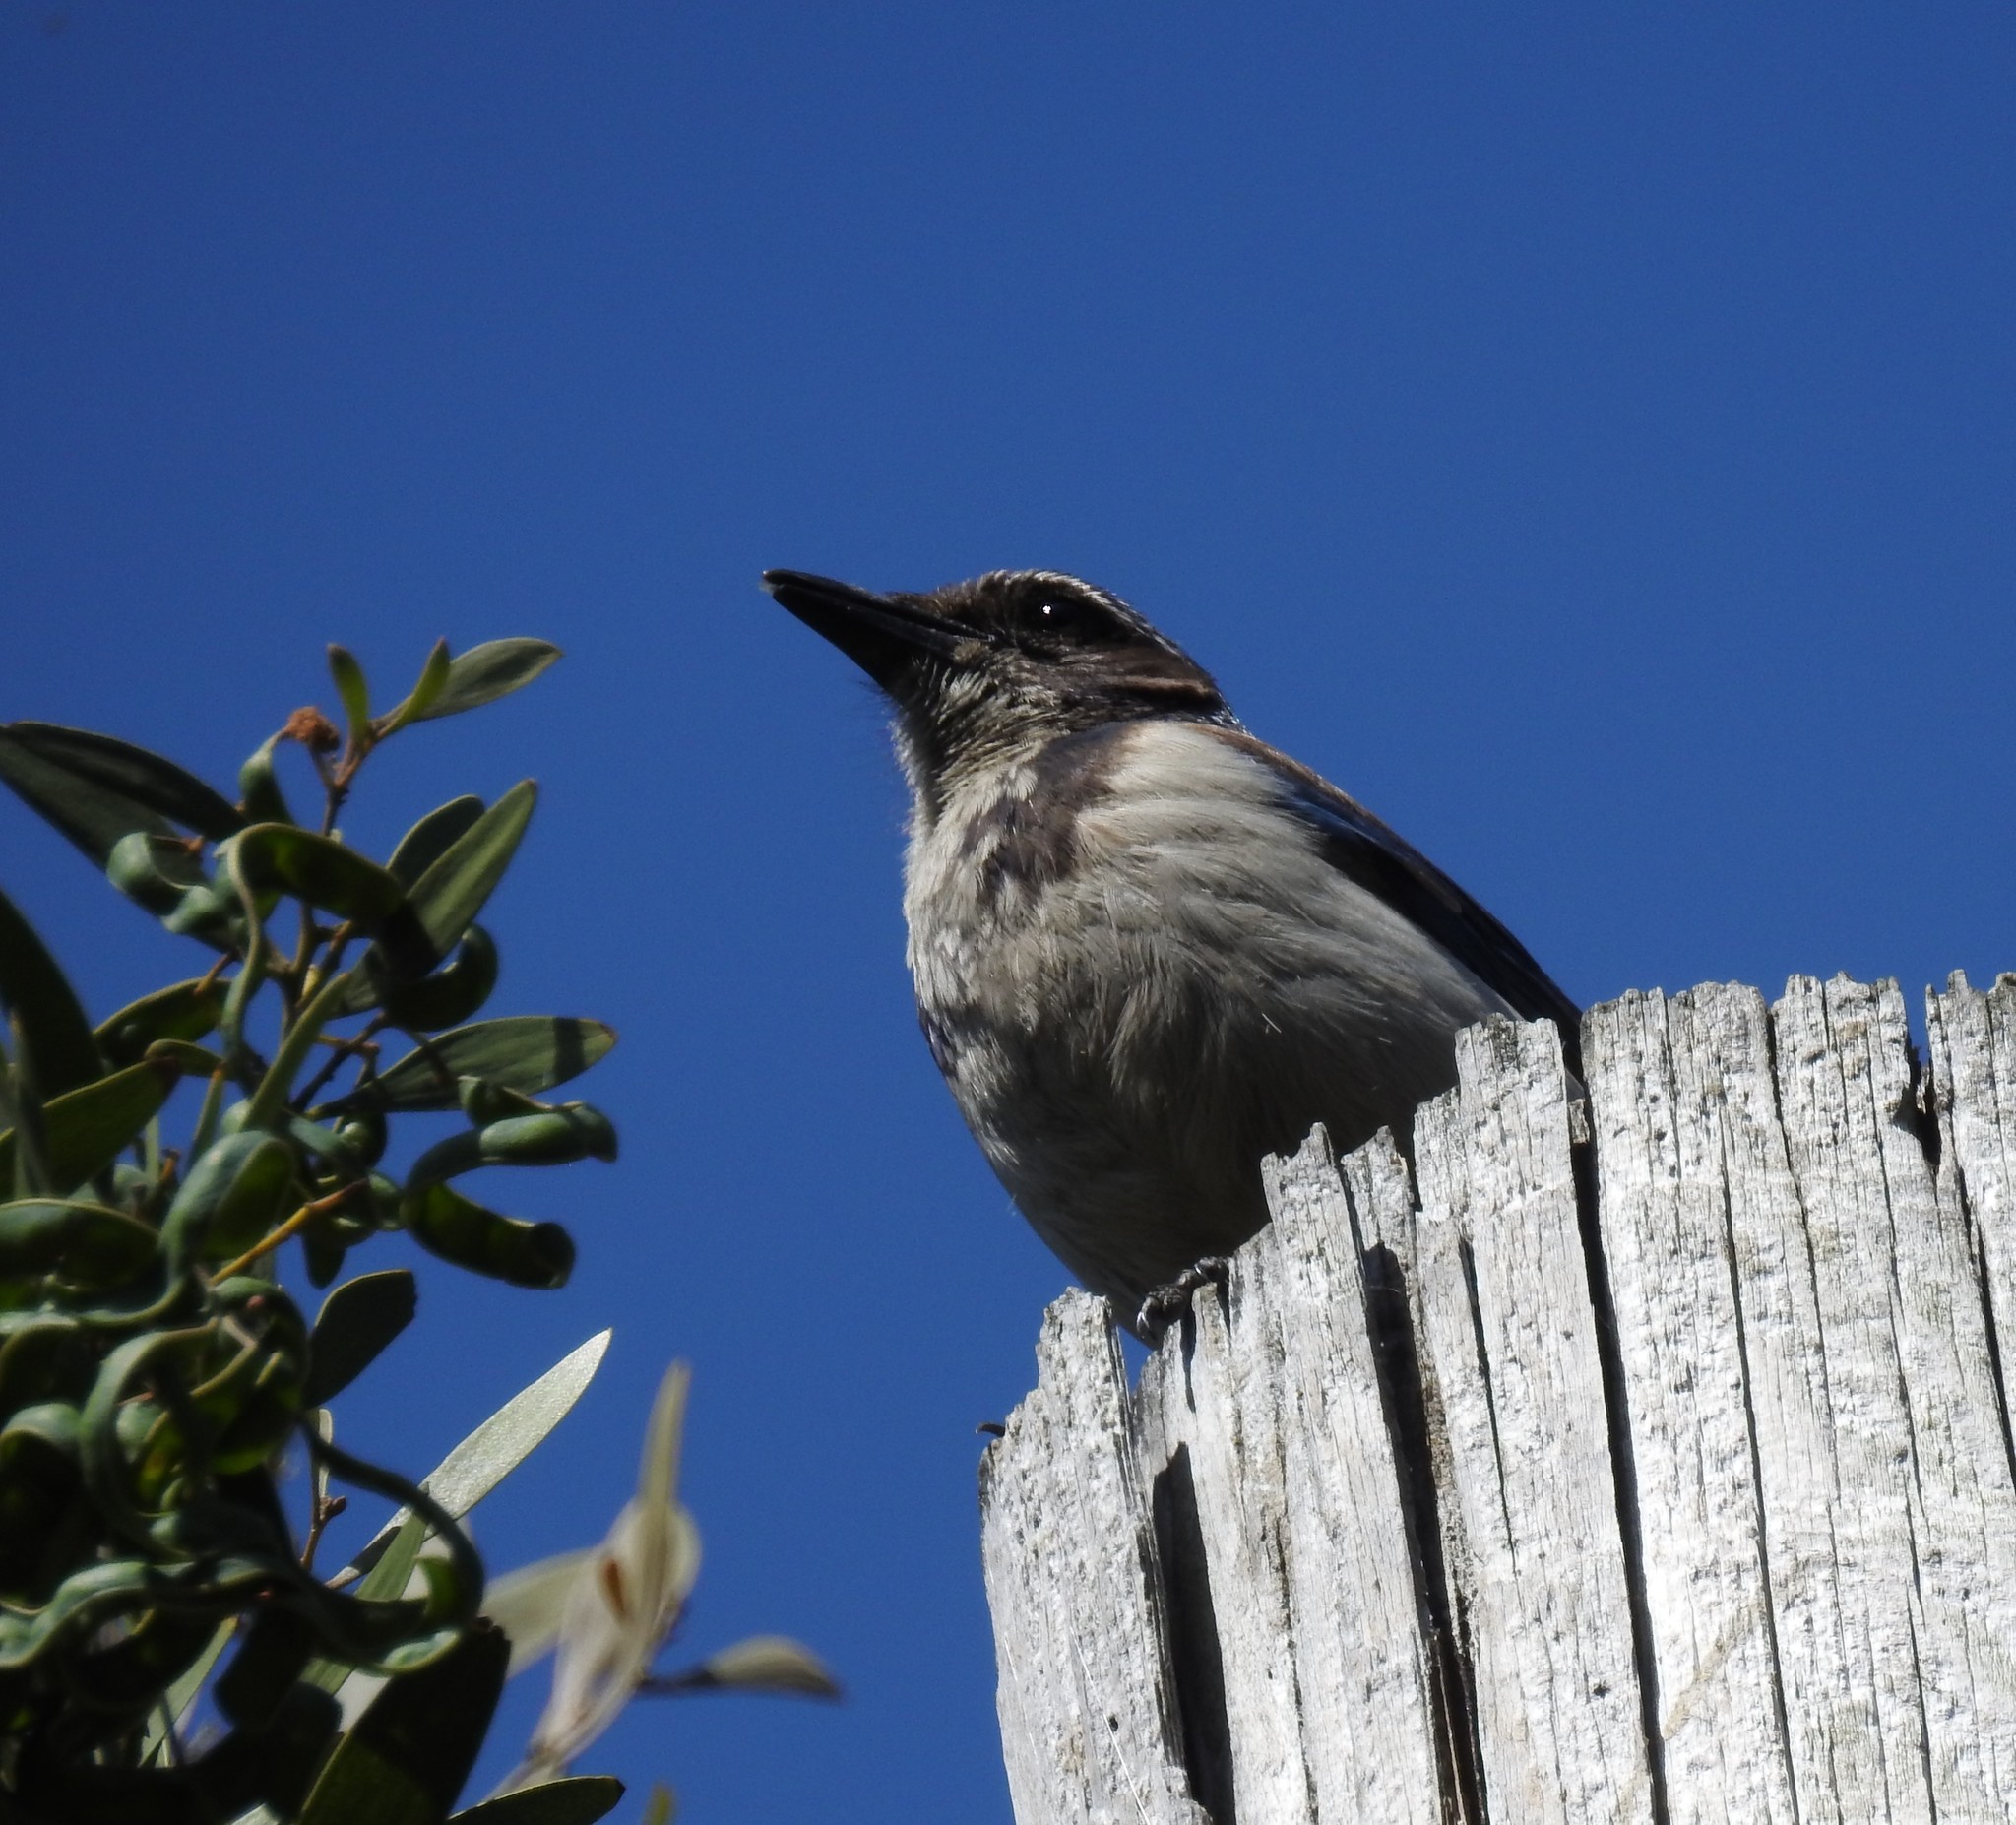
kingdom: Animalia
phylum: Chordata
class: Aves
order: Passeriformes
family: Corvidae
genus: Aphelocoma
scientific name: Aphelocoma californica
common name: California scrub-jay
